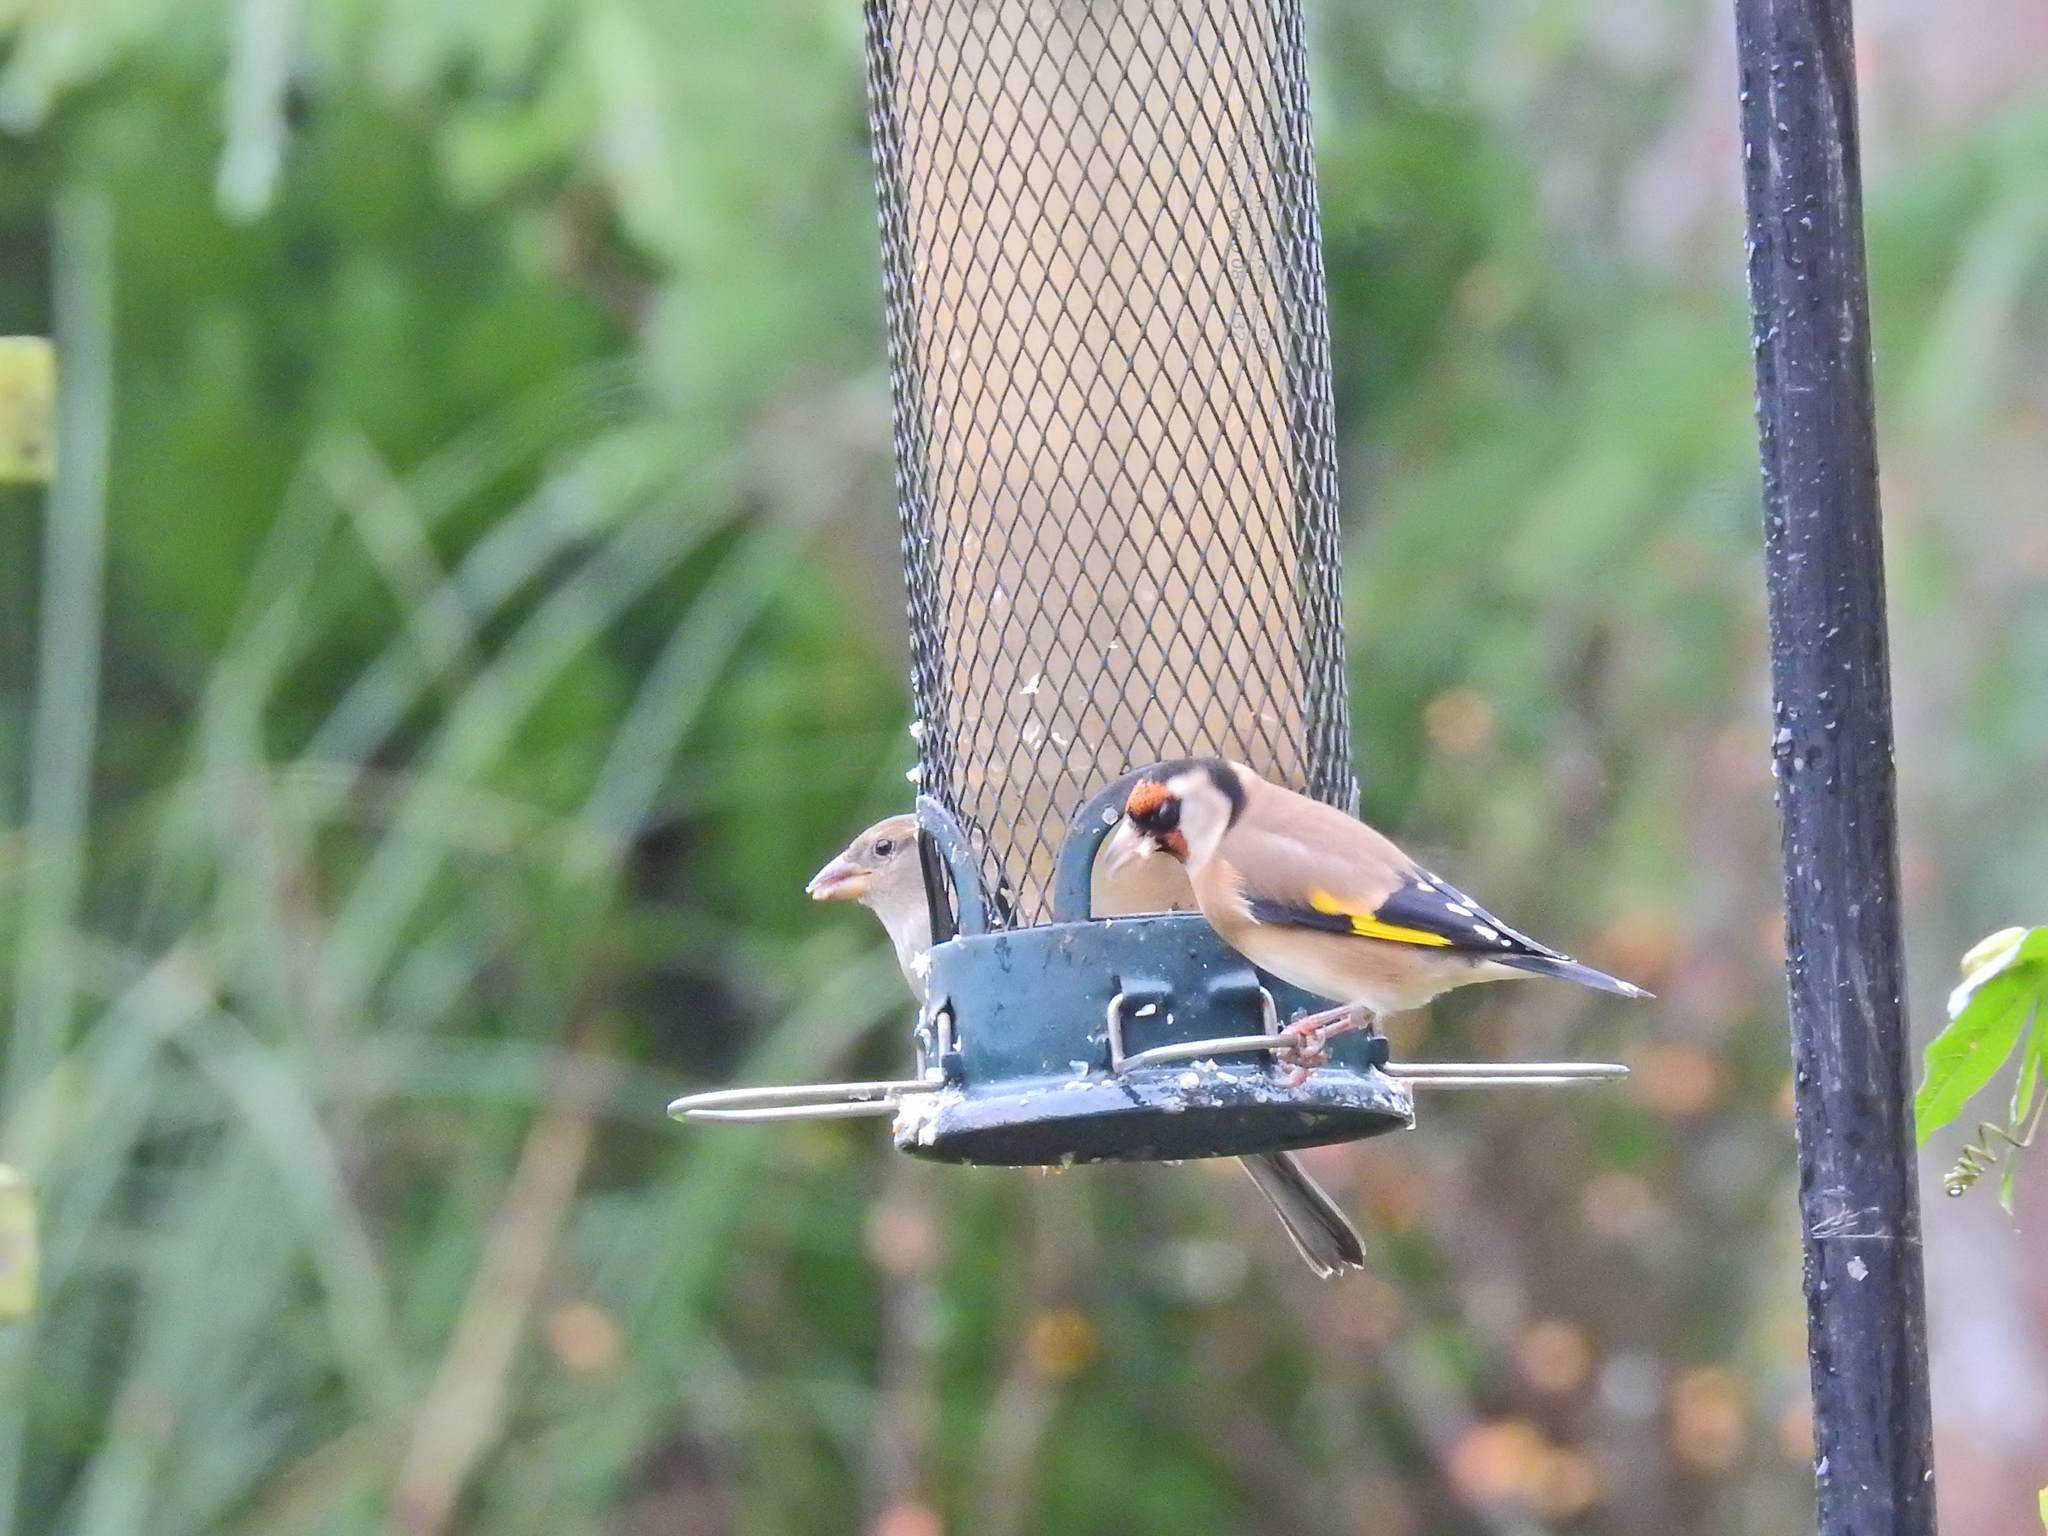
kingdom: Animalia
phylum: Chordata
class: Aves
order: Passeriformes
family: Fringillidae
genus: Carduelis
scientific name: Carduelis carduelis
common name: European goldfinch
